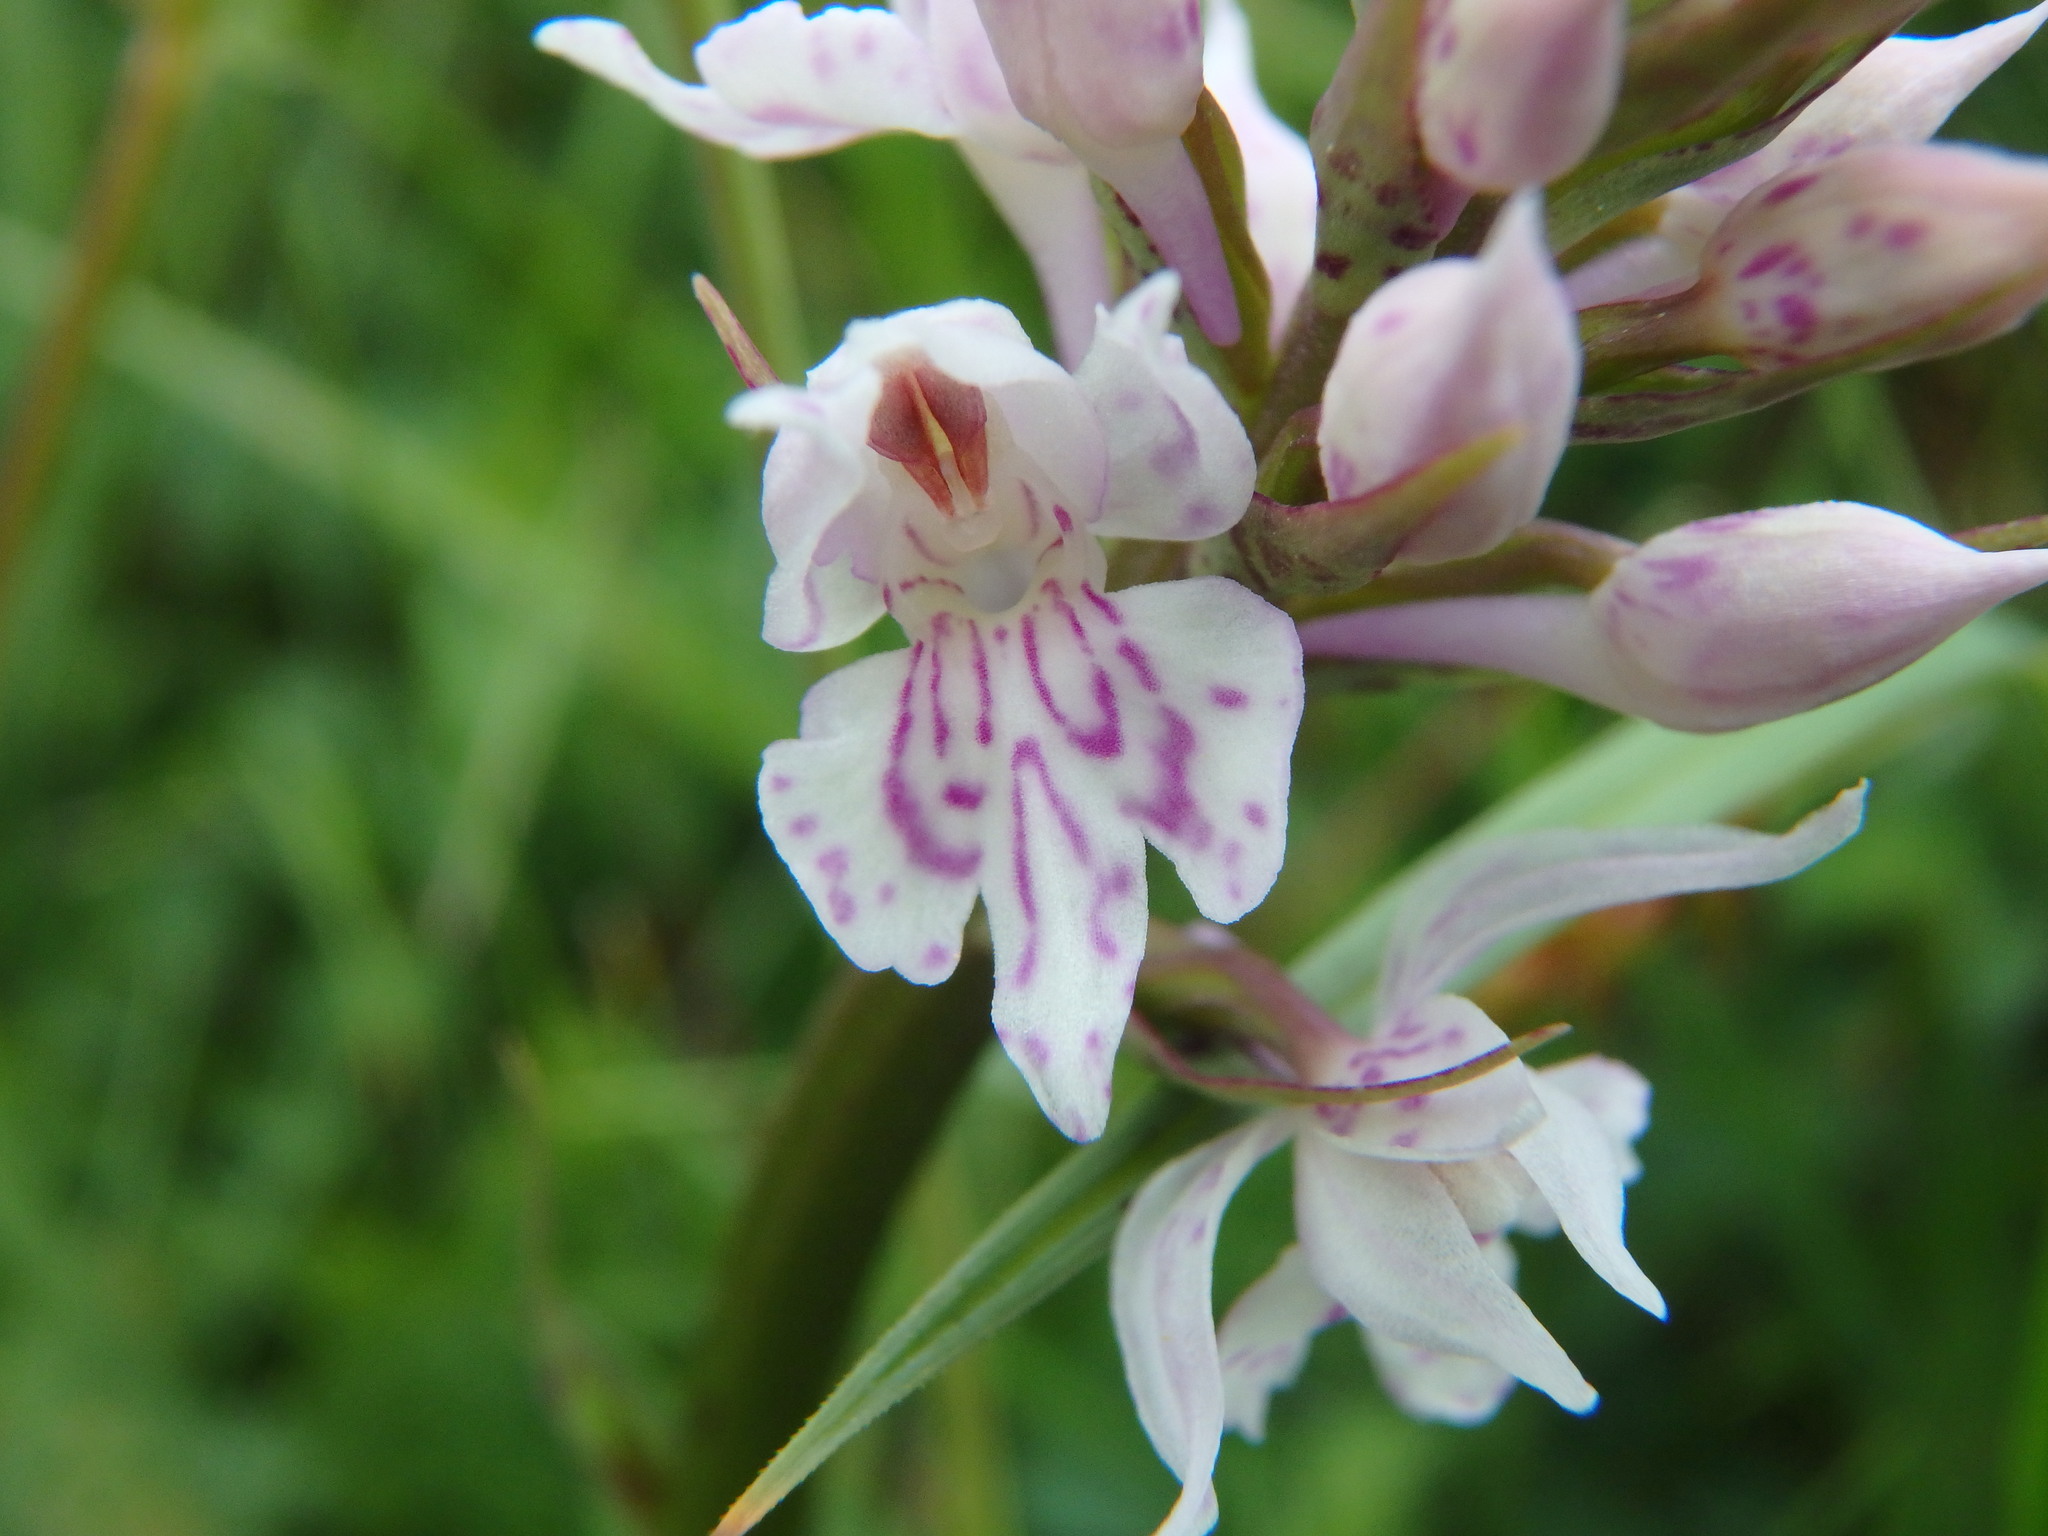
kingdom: Plantae
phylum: Tracheophyta
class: Liliopsida
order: Asparagales
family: Orchidaceae
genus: Dactylorhiza
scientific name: Dactylorhiza maculata
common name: Heath spotted-orchid
